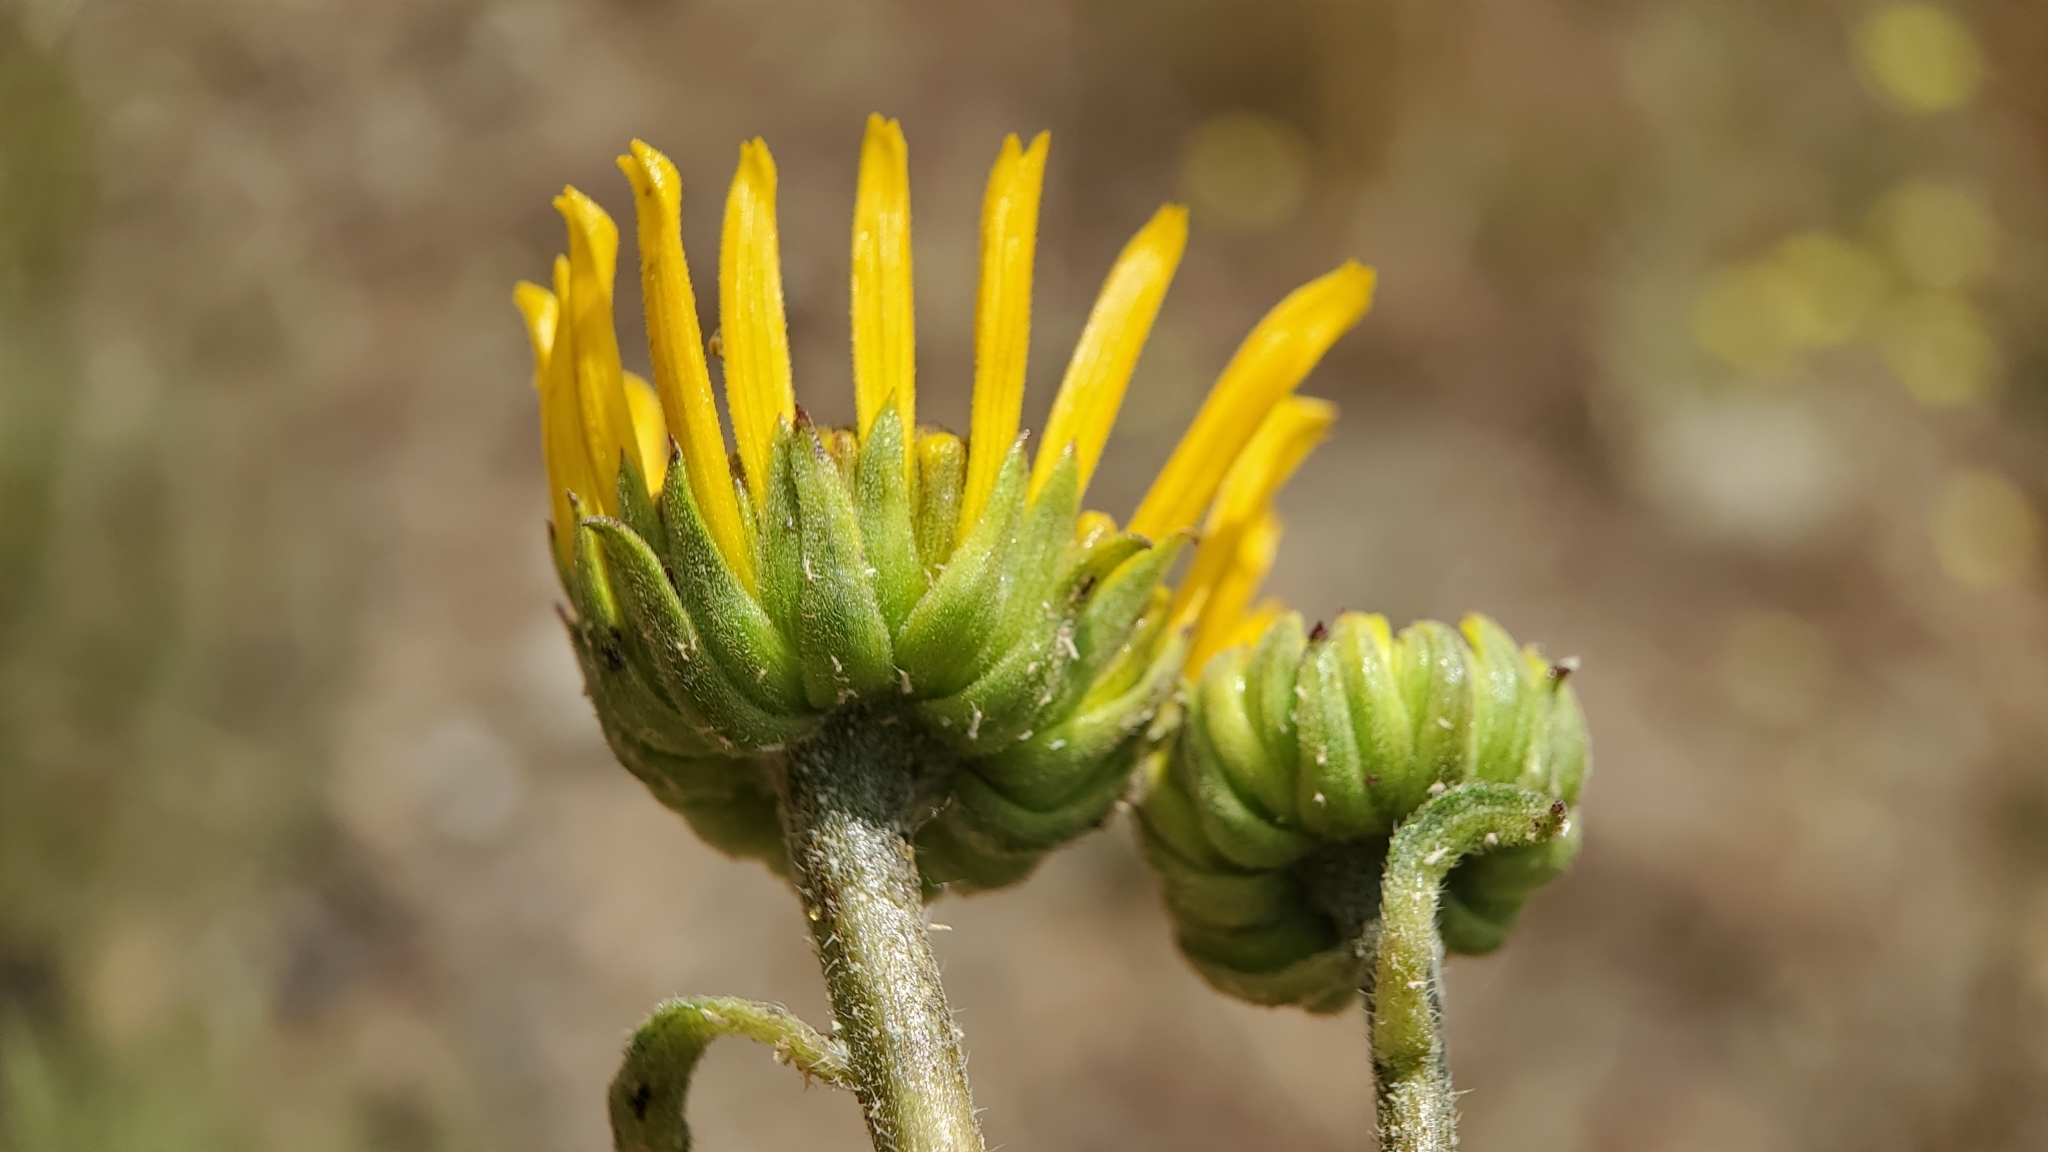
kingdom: Plantae
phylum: Tracheophyta
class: Magnoliopsida
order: Asterales
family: Asteraceae
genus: Helianthus
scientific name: Helianthus gracilentus
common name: Slender sunflower
